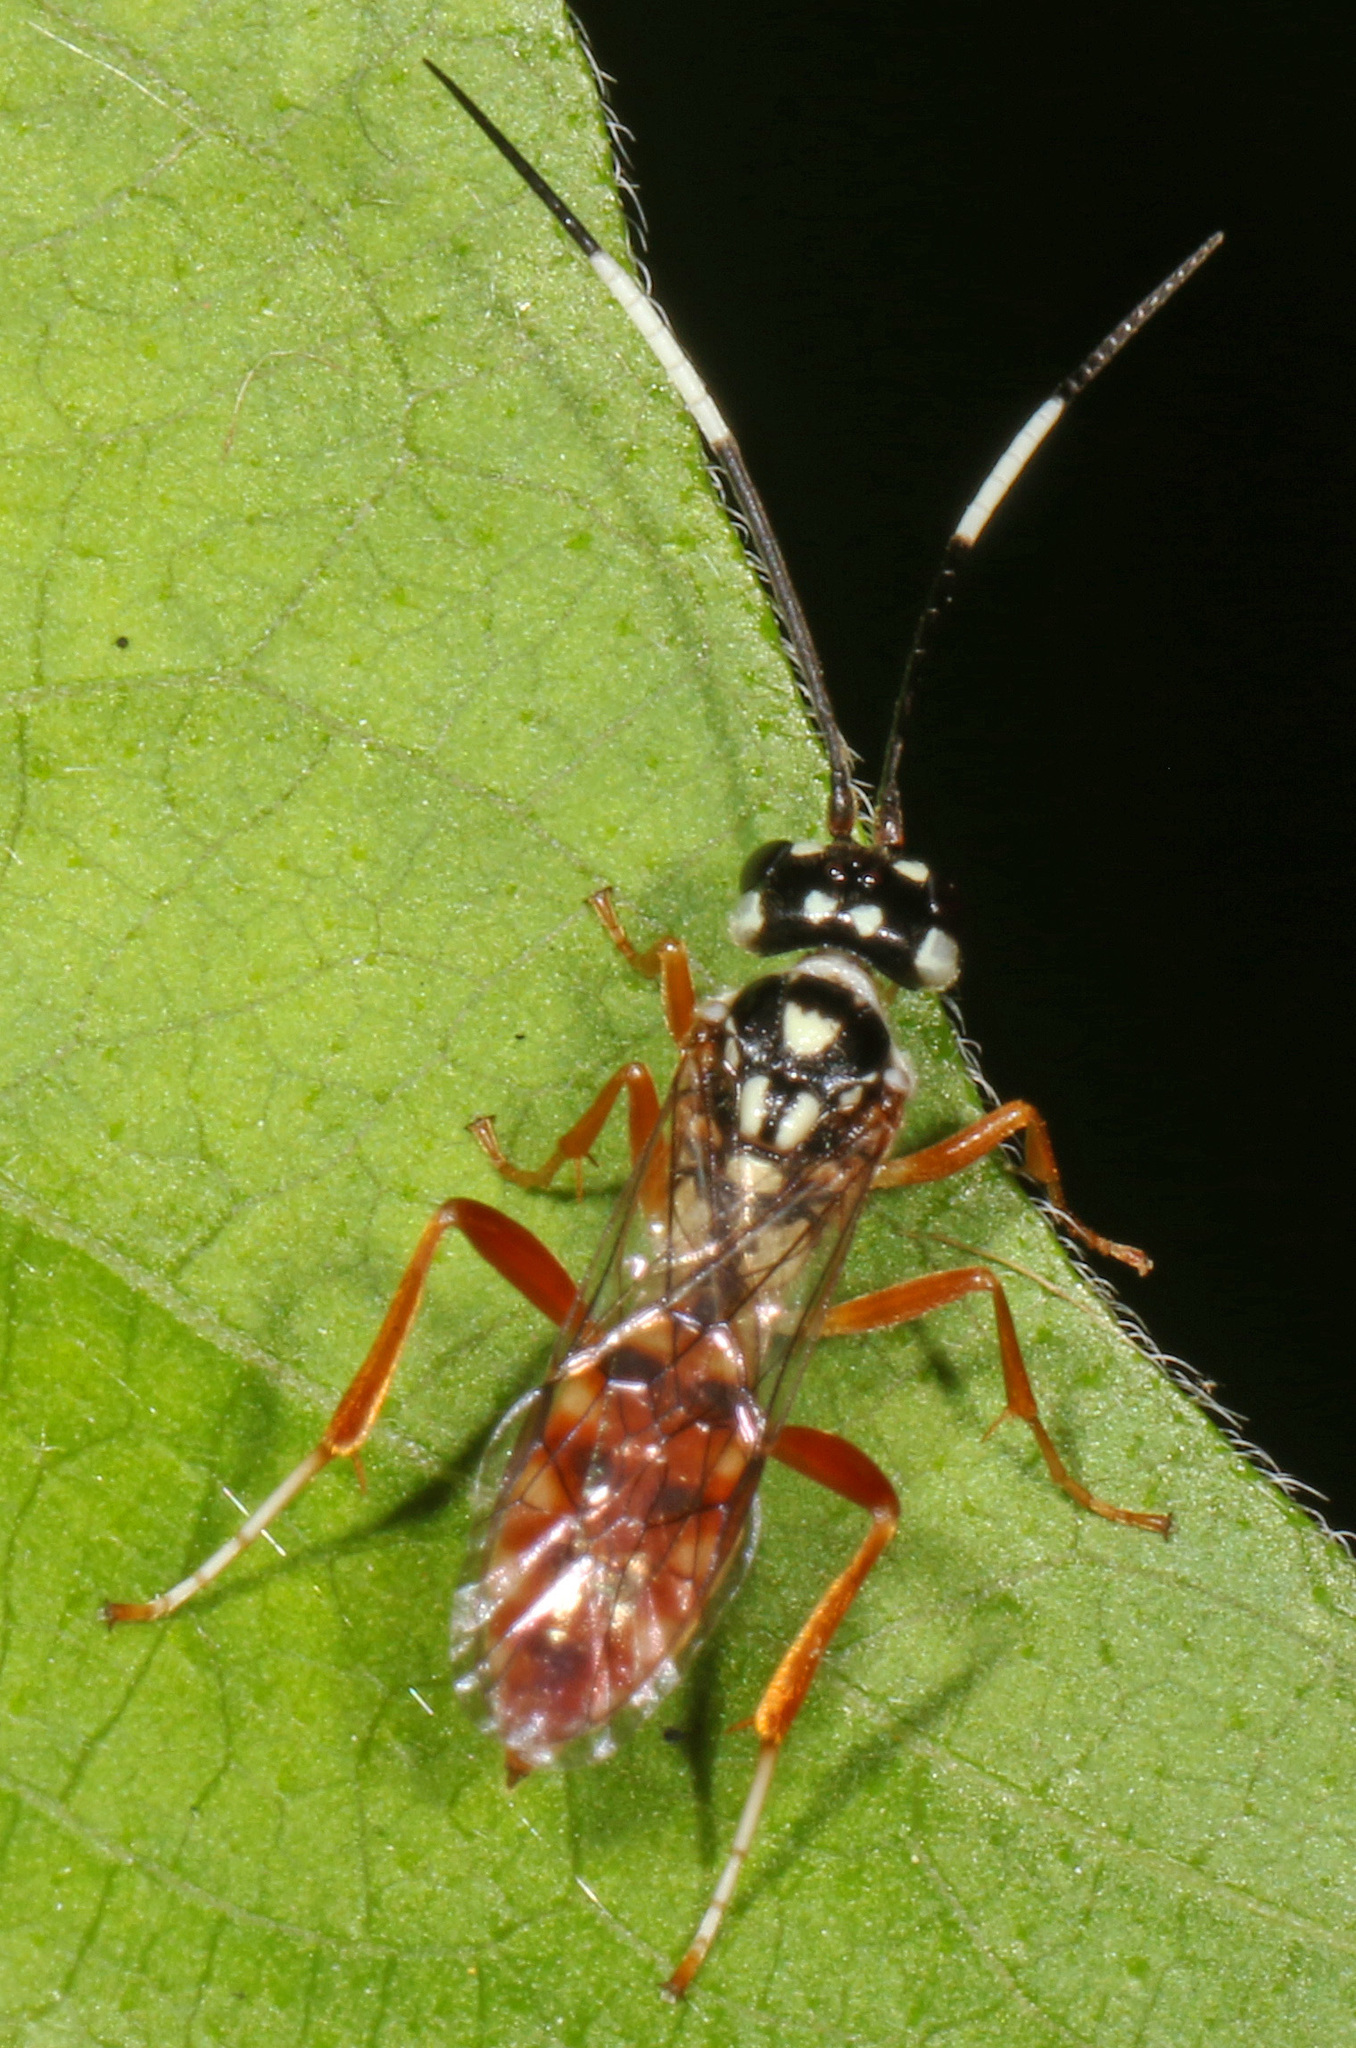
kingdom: Animalia
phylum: Arthropoda
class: Insecta
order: Hymenoptera
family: Trigonalidae
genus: Orthogonalys
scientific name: Orthogonalys pulchella
